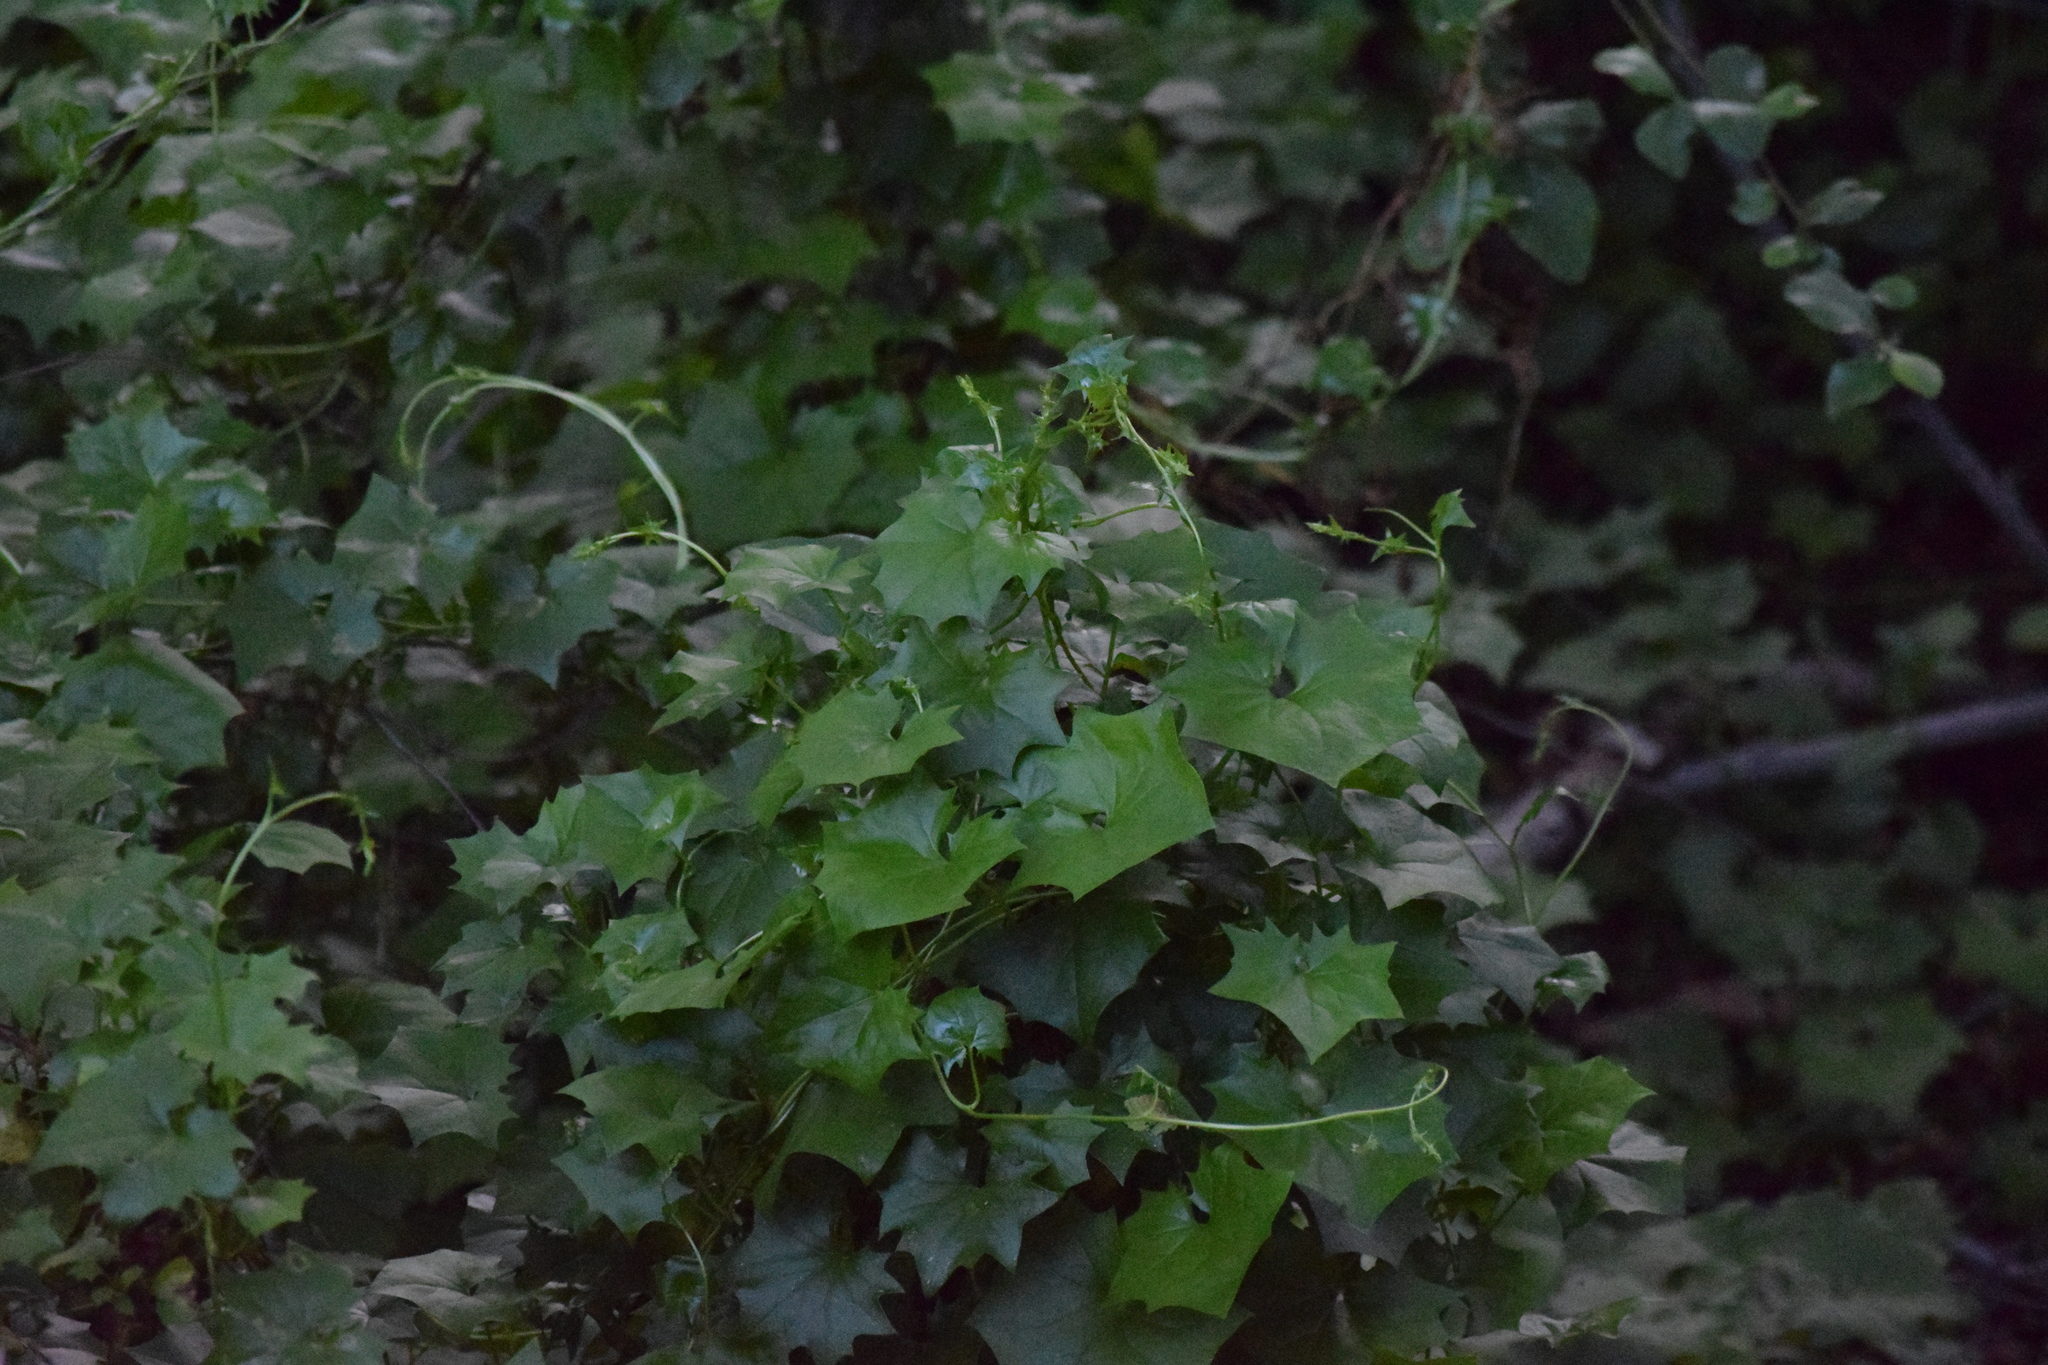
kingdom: Plantae
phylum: Tracheophyta
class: Magnoliopsida
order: Asterales
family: Asteraceae
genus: Delairea
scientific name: Delairea odorata
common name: Cape-ivy
